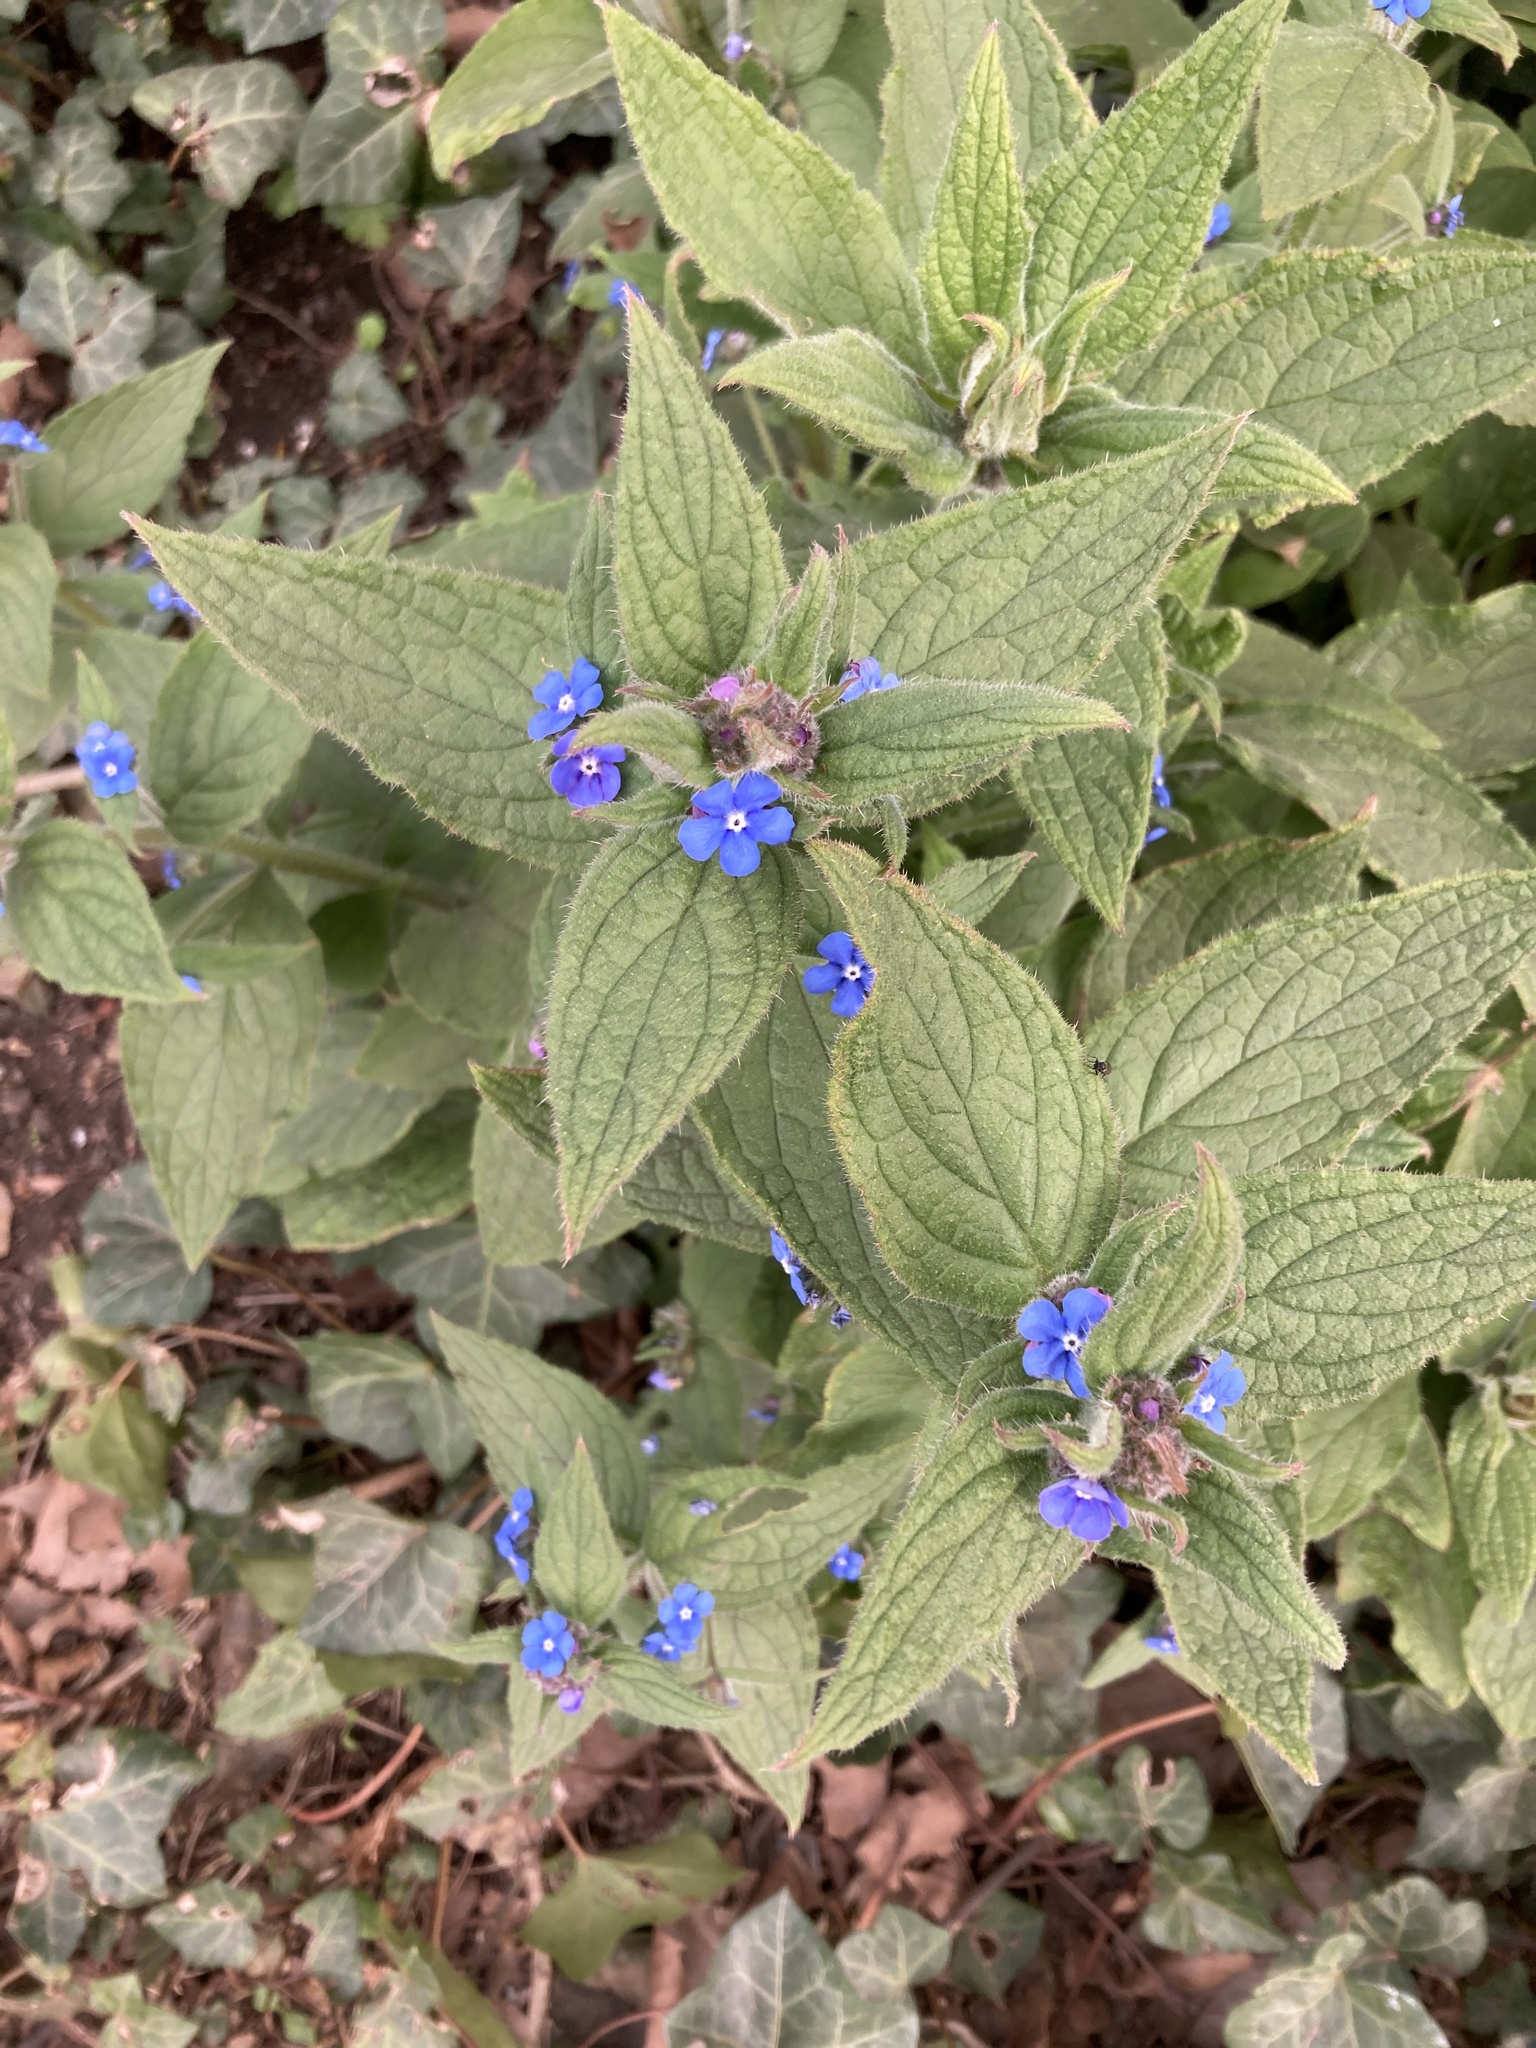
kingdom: Plantae
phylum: Tracheophyta
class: Magnoliopsida
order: Boraginales
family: Boraginaceae
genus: Pentaglottis
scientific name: Pentaglottis sempervirens
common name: Green alkanet
